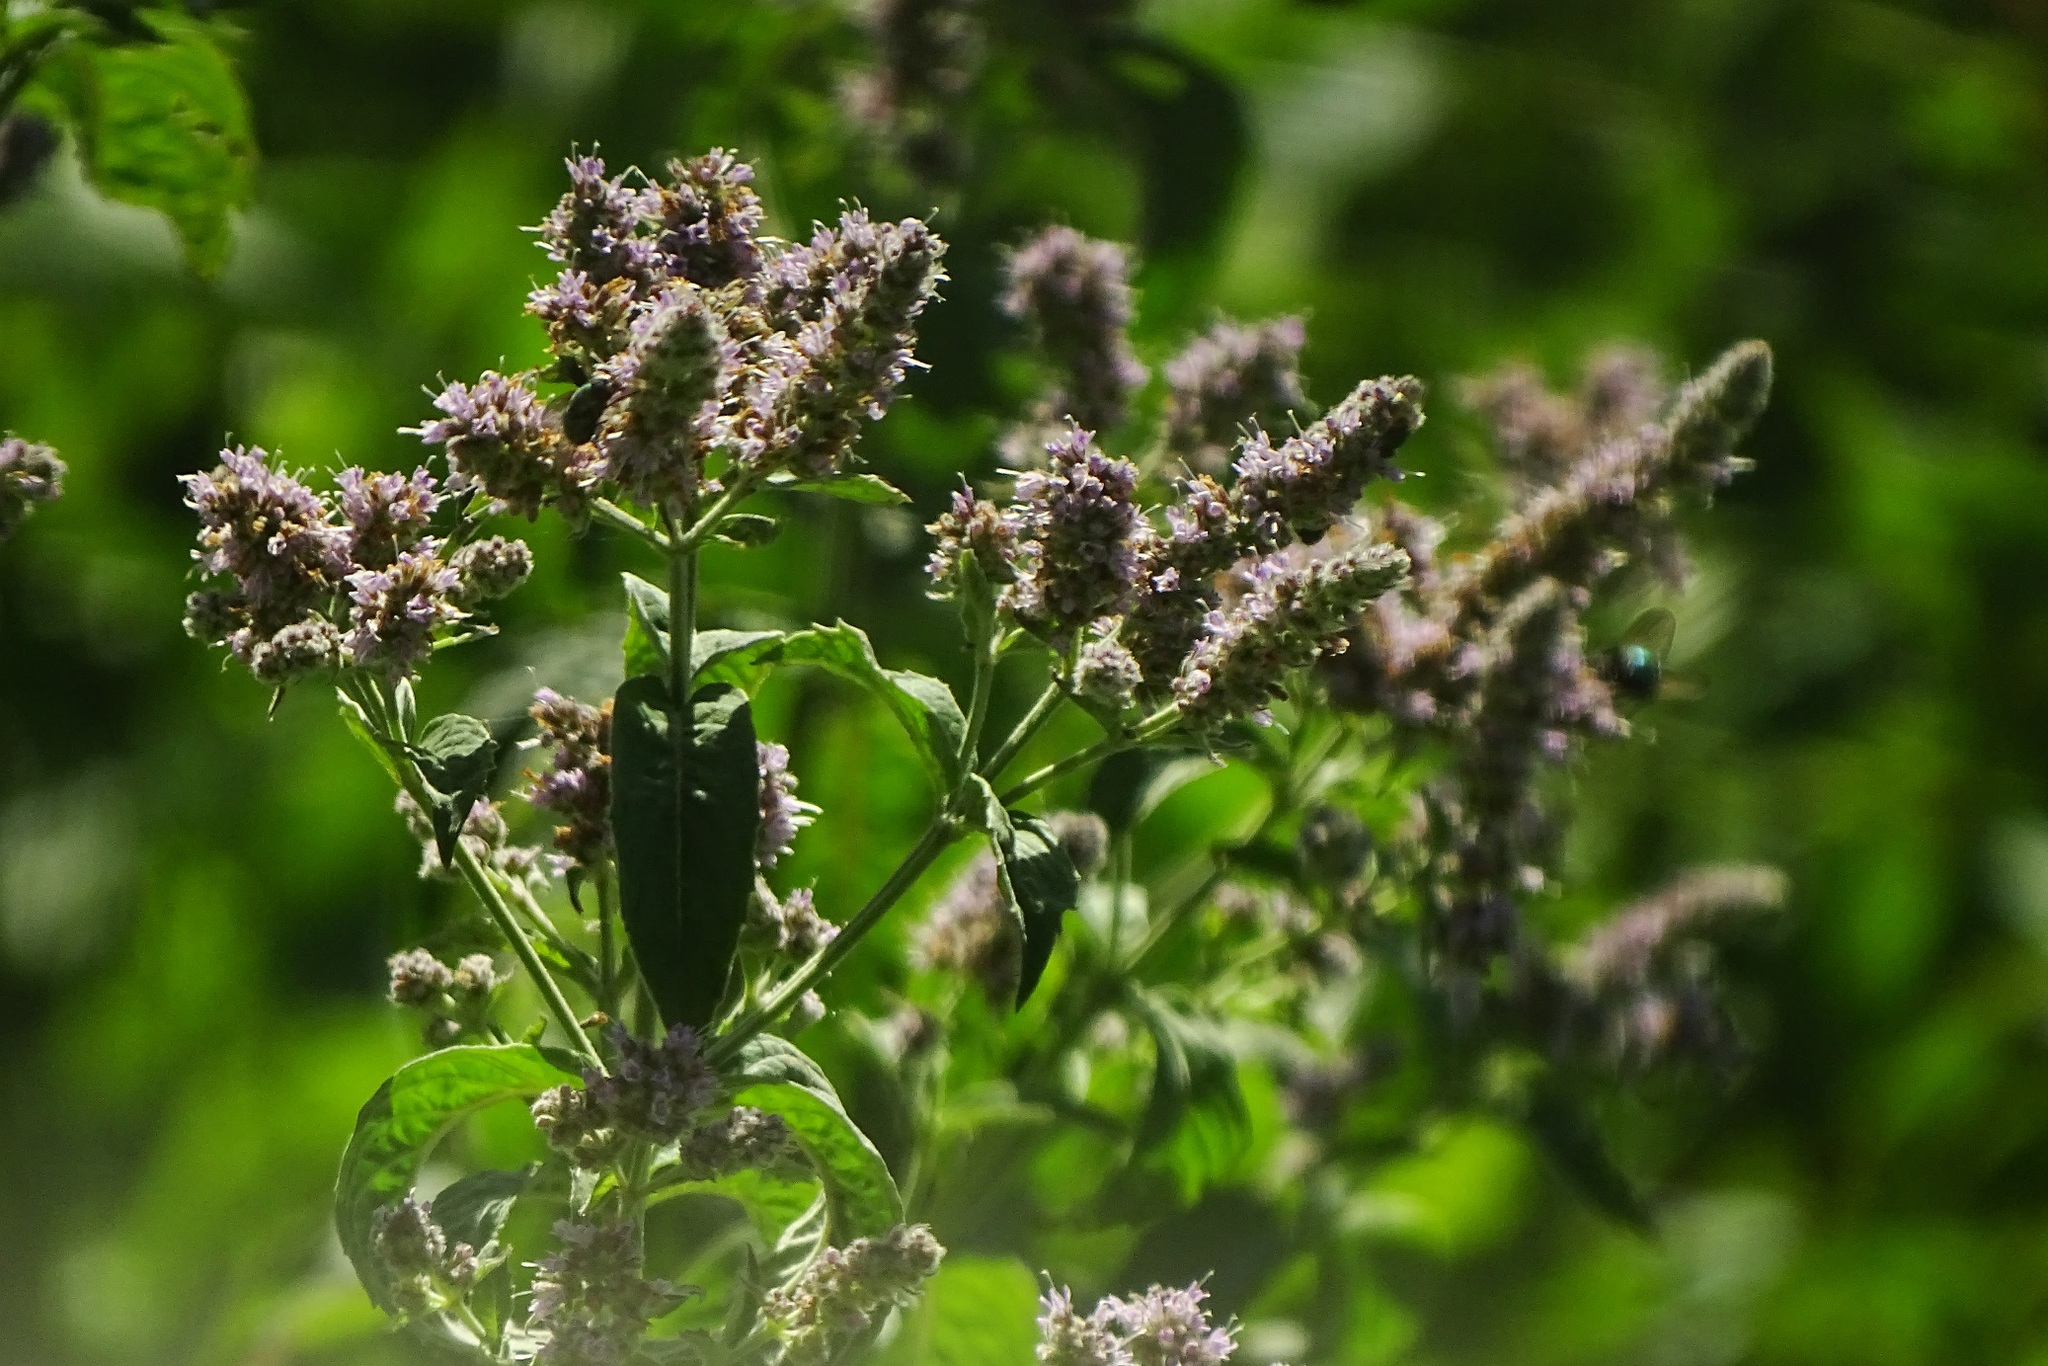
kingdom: Plantae
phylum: Tracheophyta
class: Magnoliopsida
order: Lamiales
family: Lamiaceae
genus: Mentha
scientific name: Mentha longifolia
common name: Horse mint
